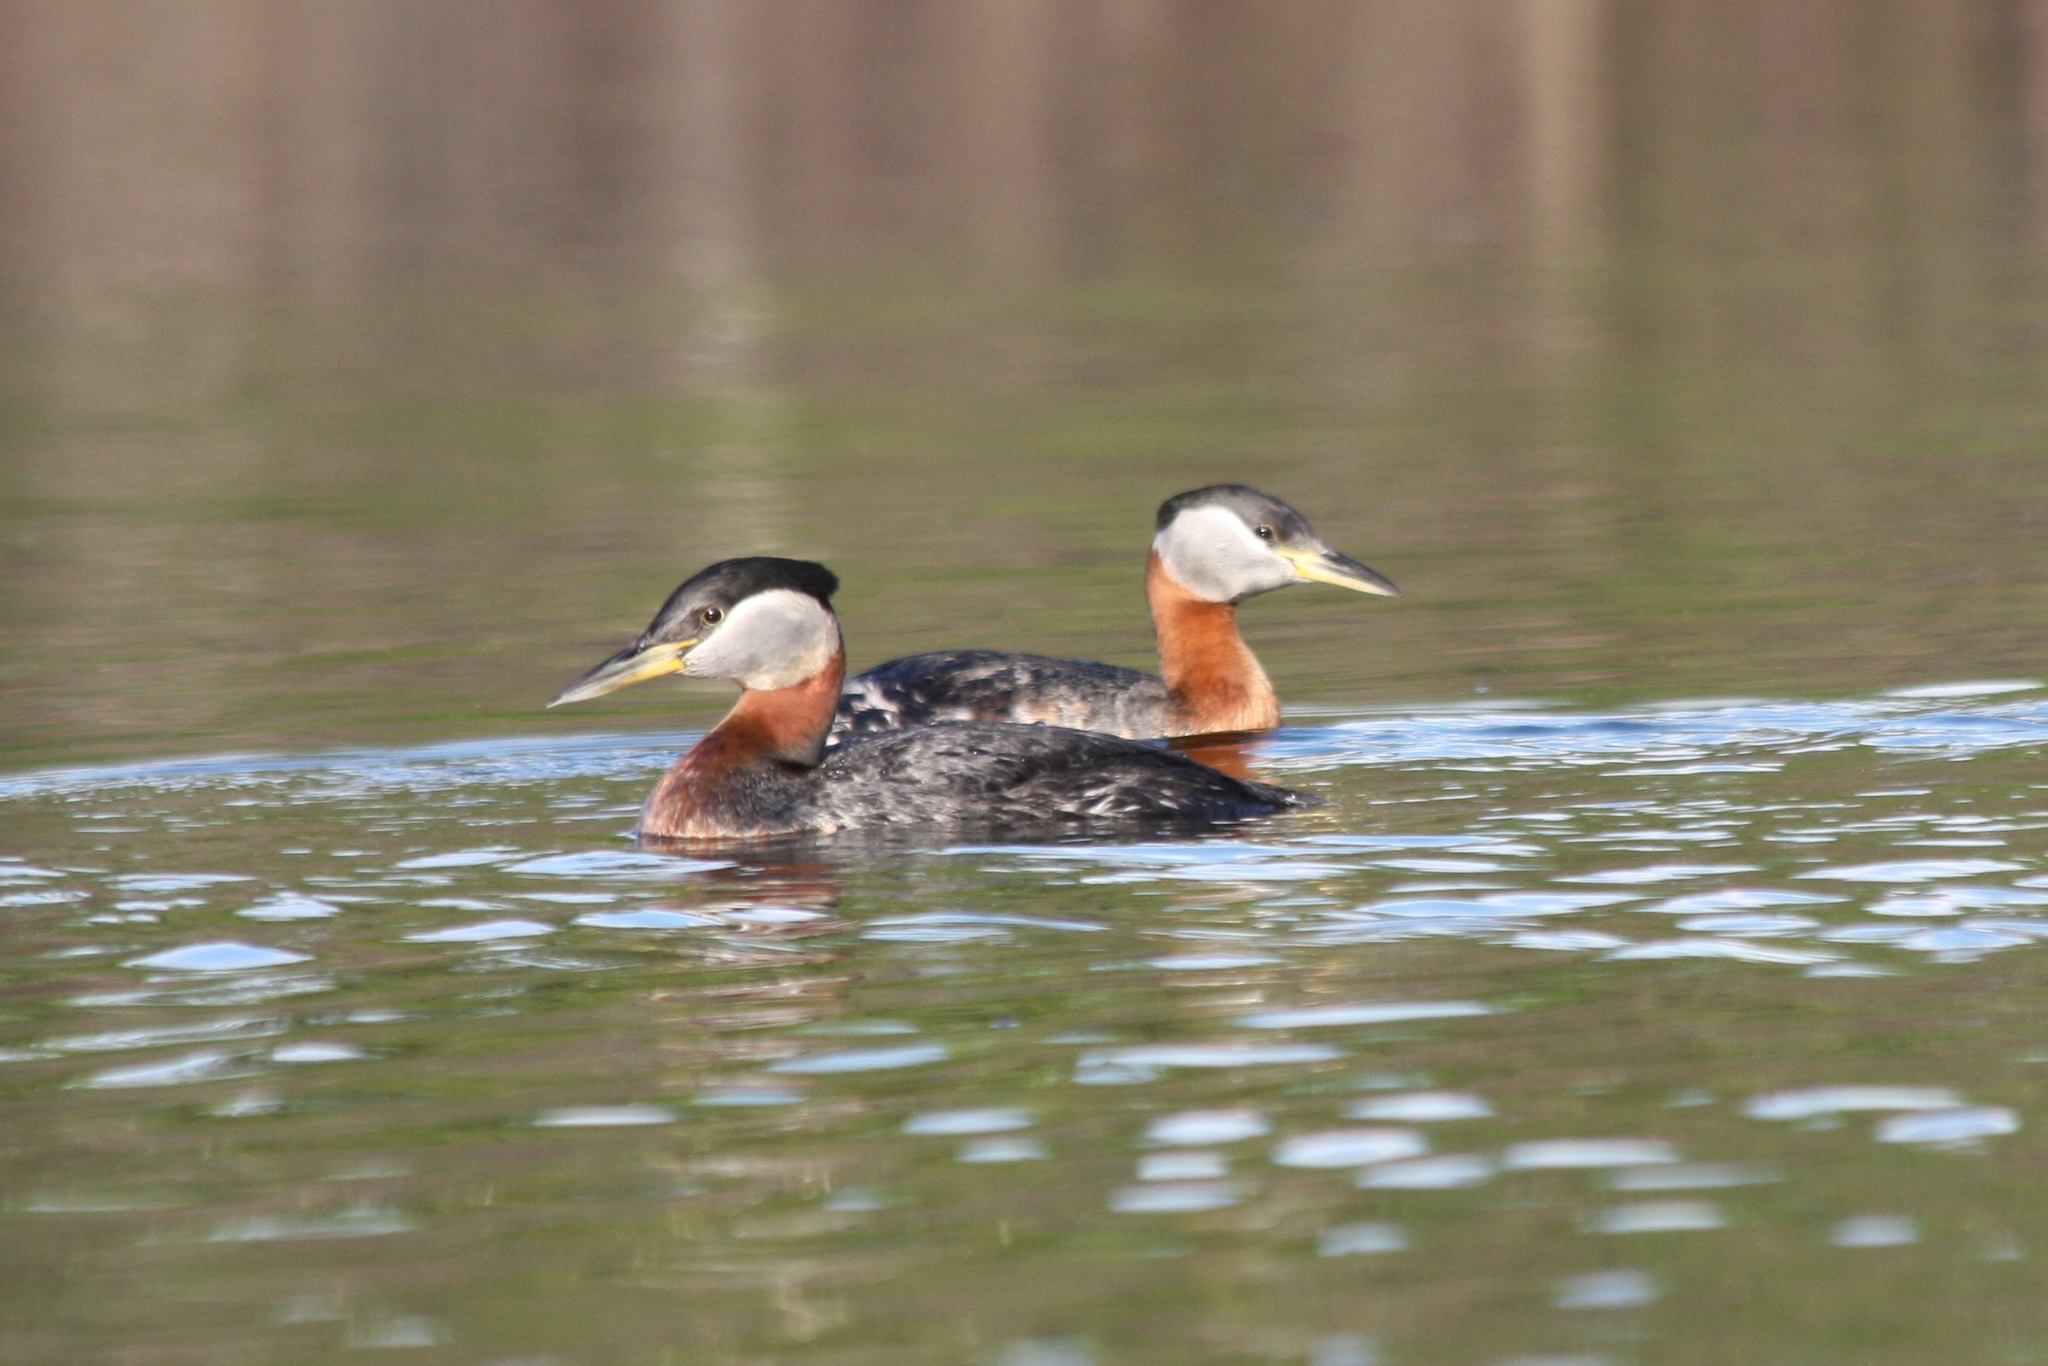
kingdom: Animalia
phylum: Chordata
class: Aves
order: Podicipediformes
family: Podicipedidae
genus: Podiceps
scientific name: Podiceps grisegena
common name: Red-necked grebe
